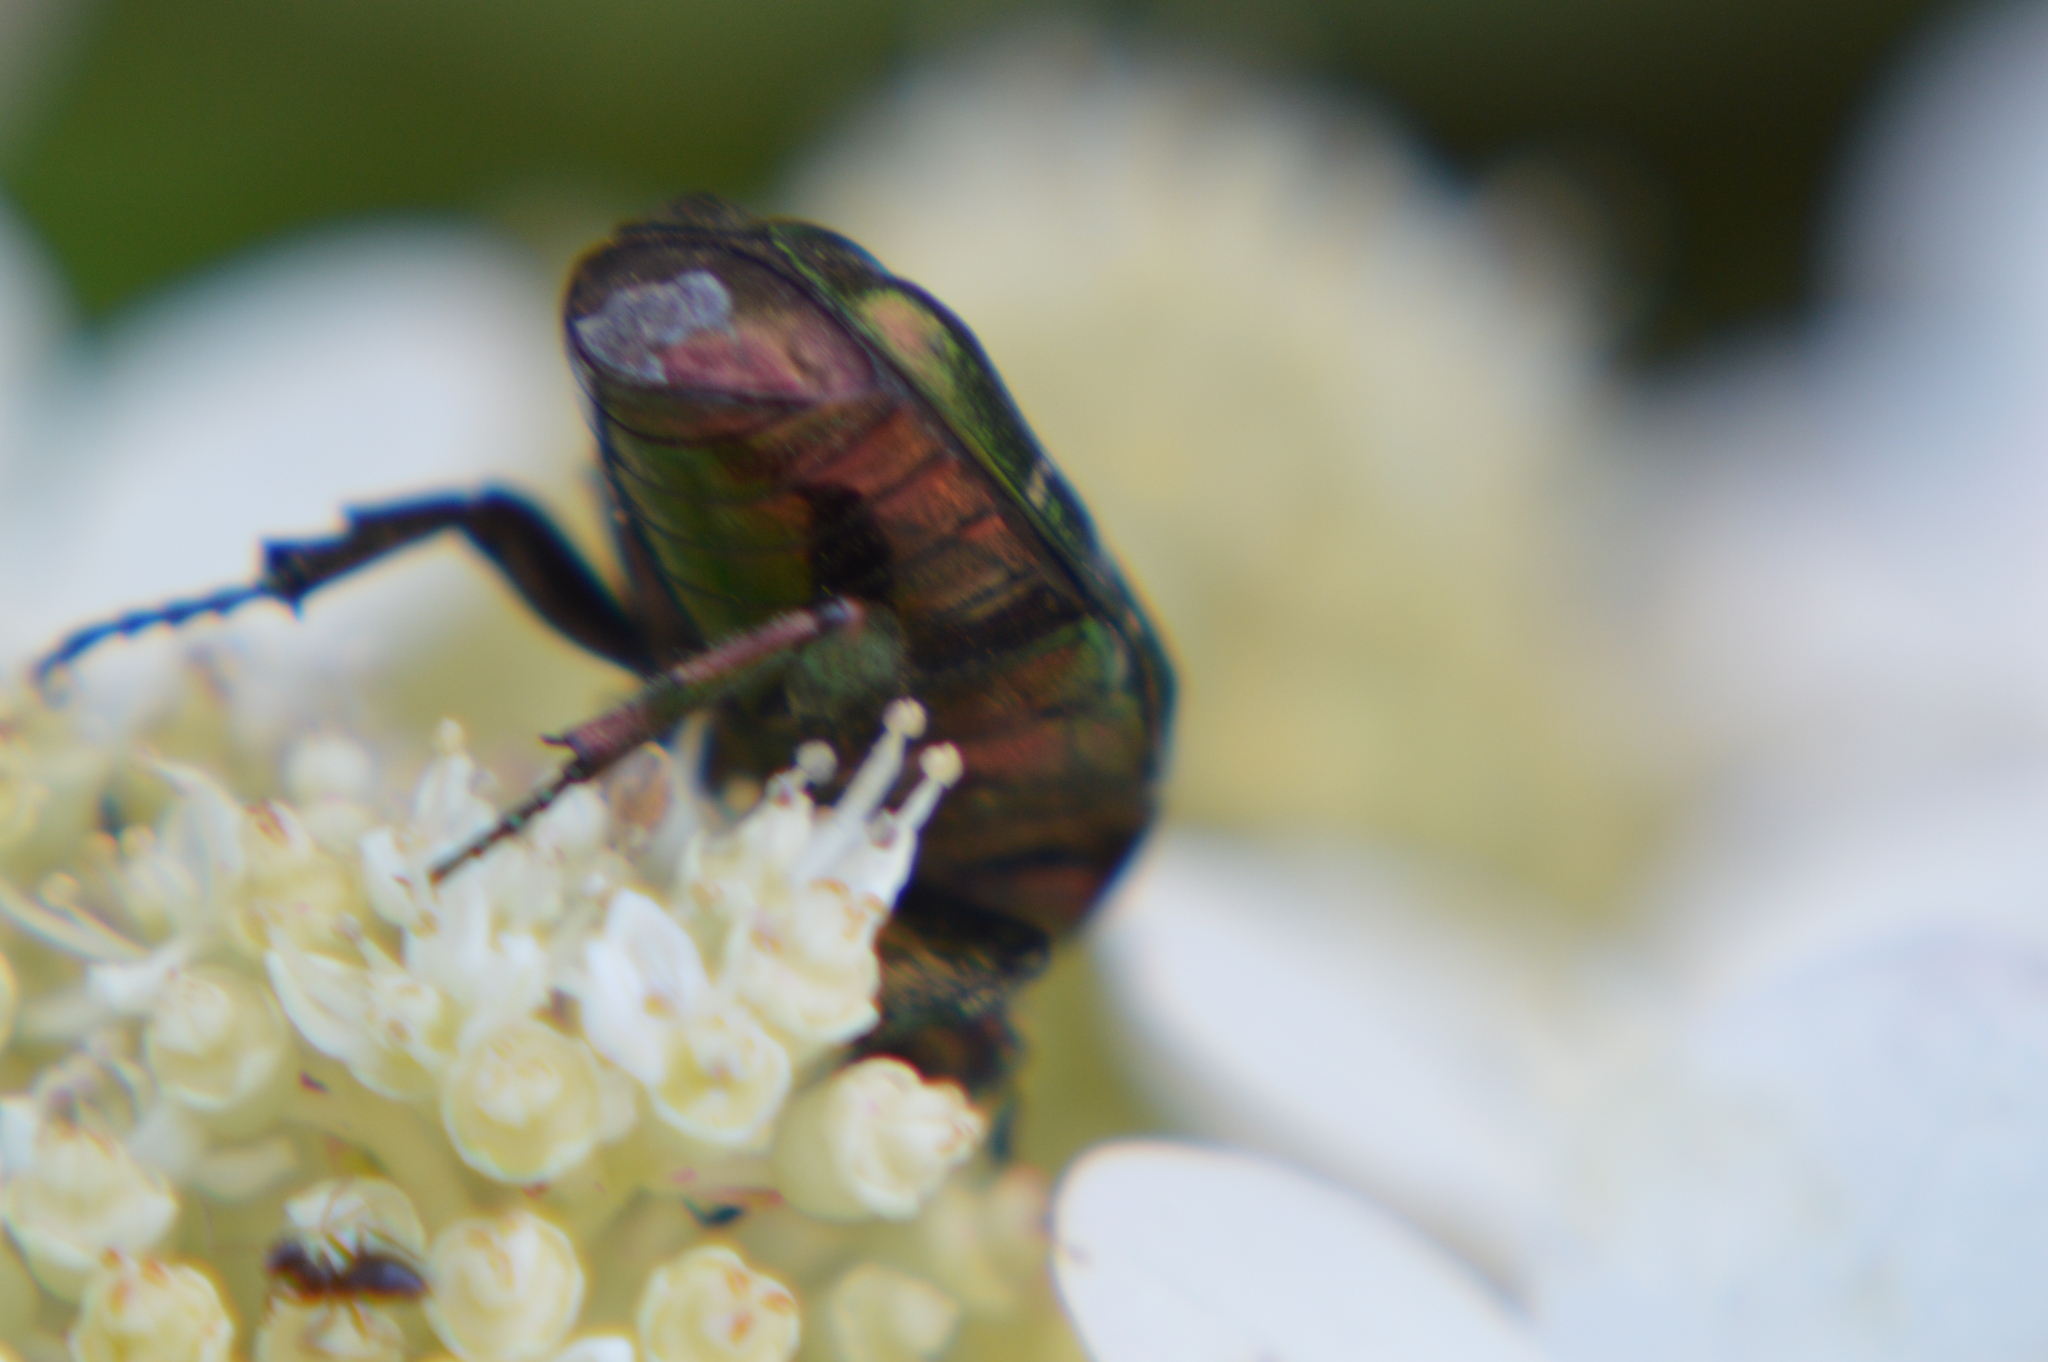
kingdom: Animalia
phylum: Arthropoda
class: Insecta
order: Coleoptera
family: Scarabaeidae
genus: Cetonia
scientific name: Cetonia aurata
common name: Rose chafer
